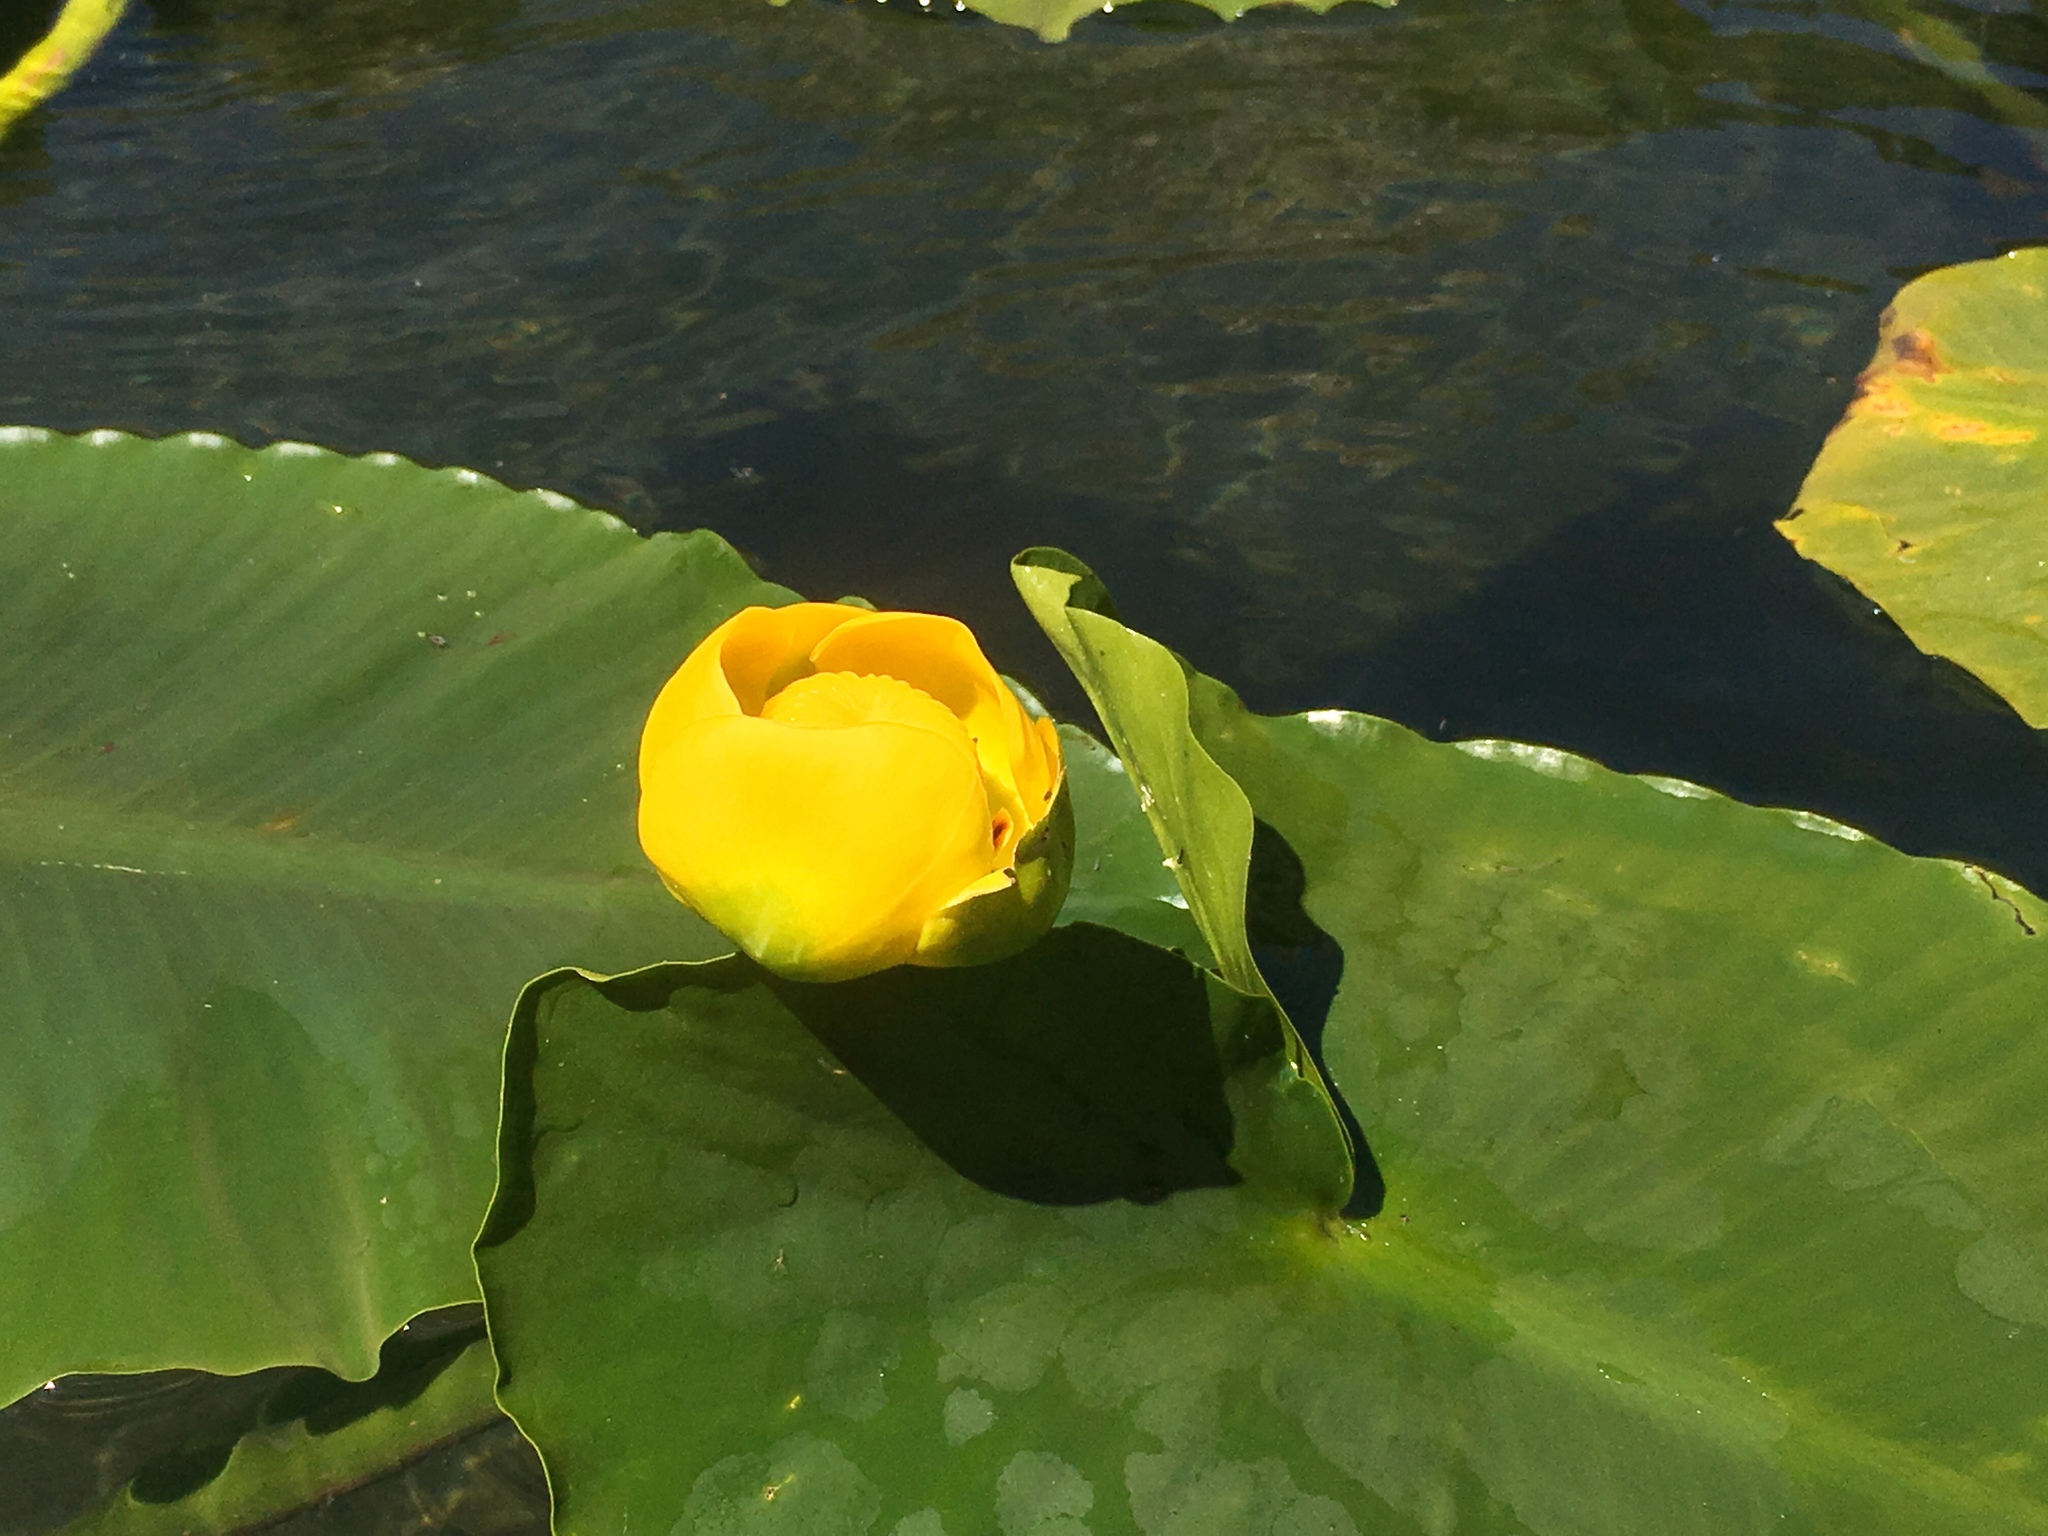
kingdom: Plantae
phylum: Tracheophyta
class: Magnoliopsida
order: Nymphaeales
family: Nymphaeaceae
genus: Nuphar
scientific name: Nuphar polysepala
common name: Rocky mountain cow-lily
